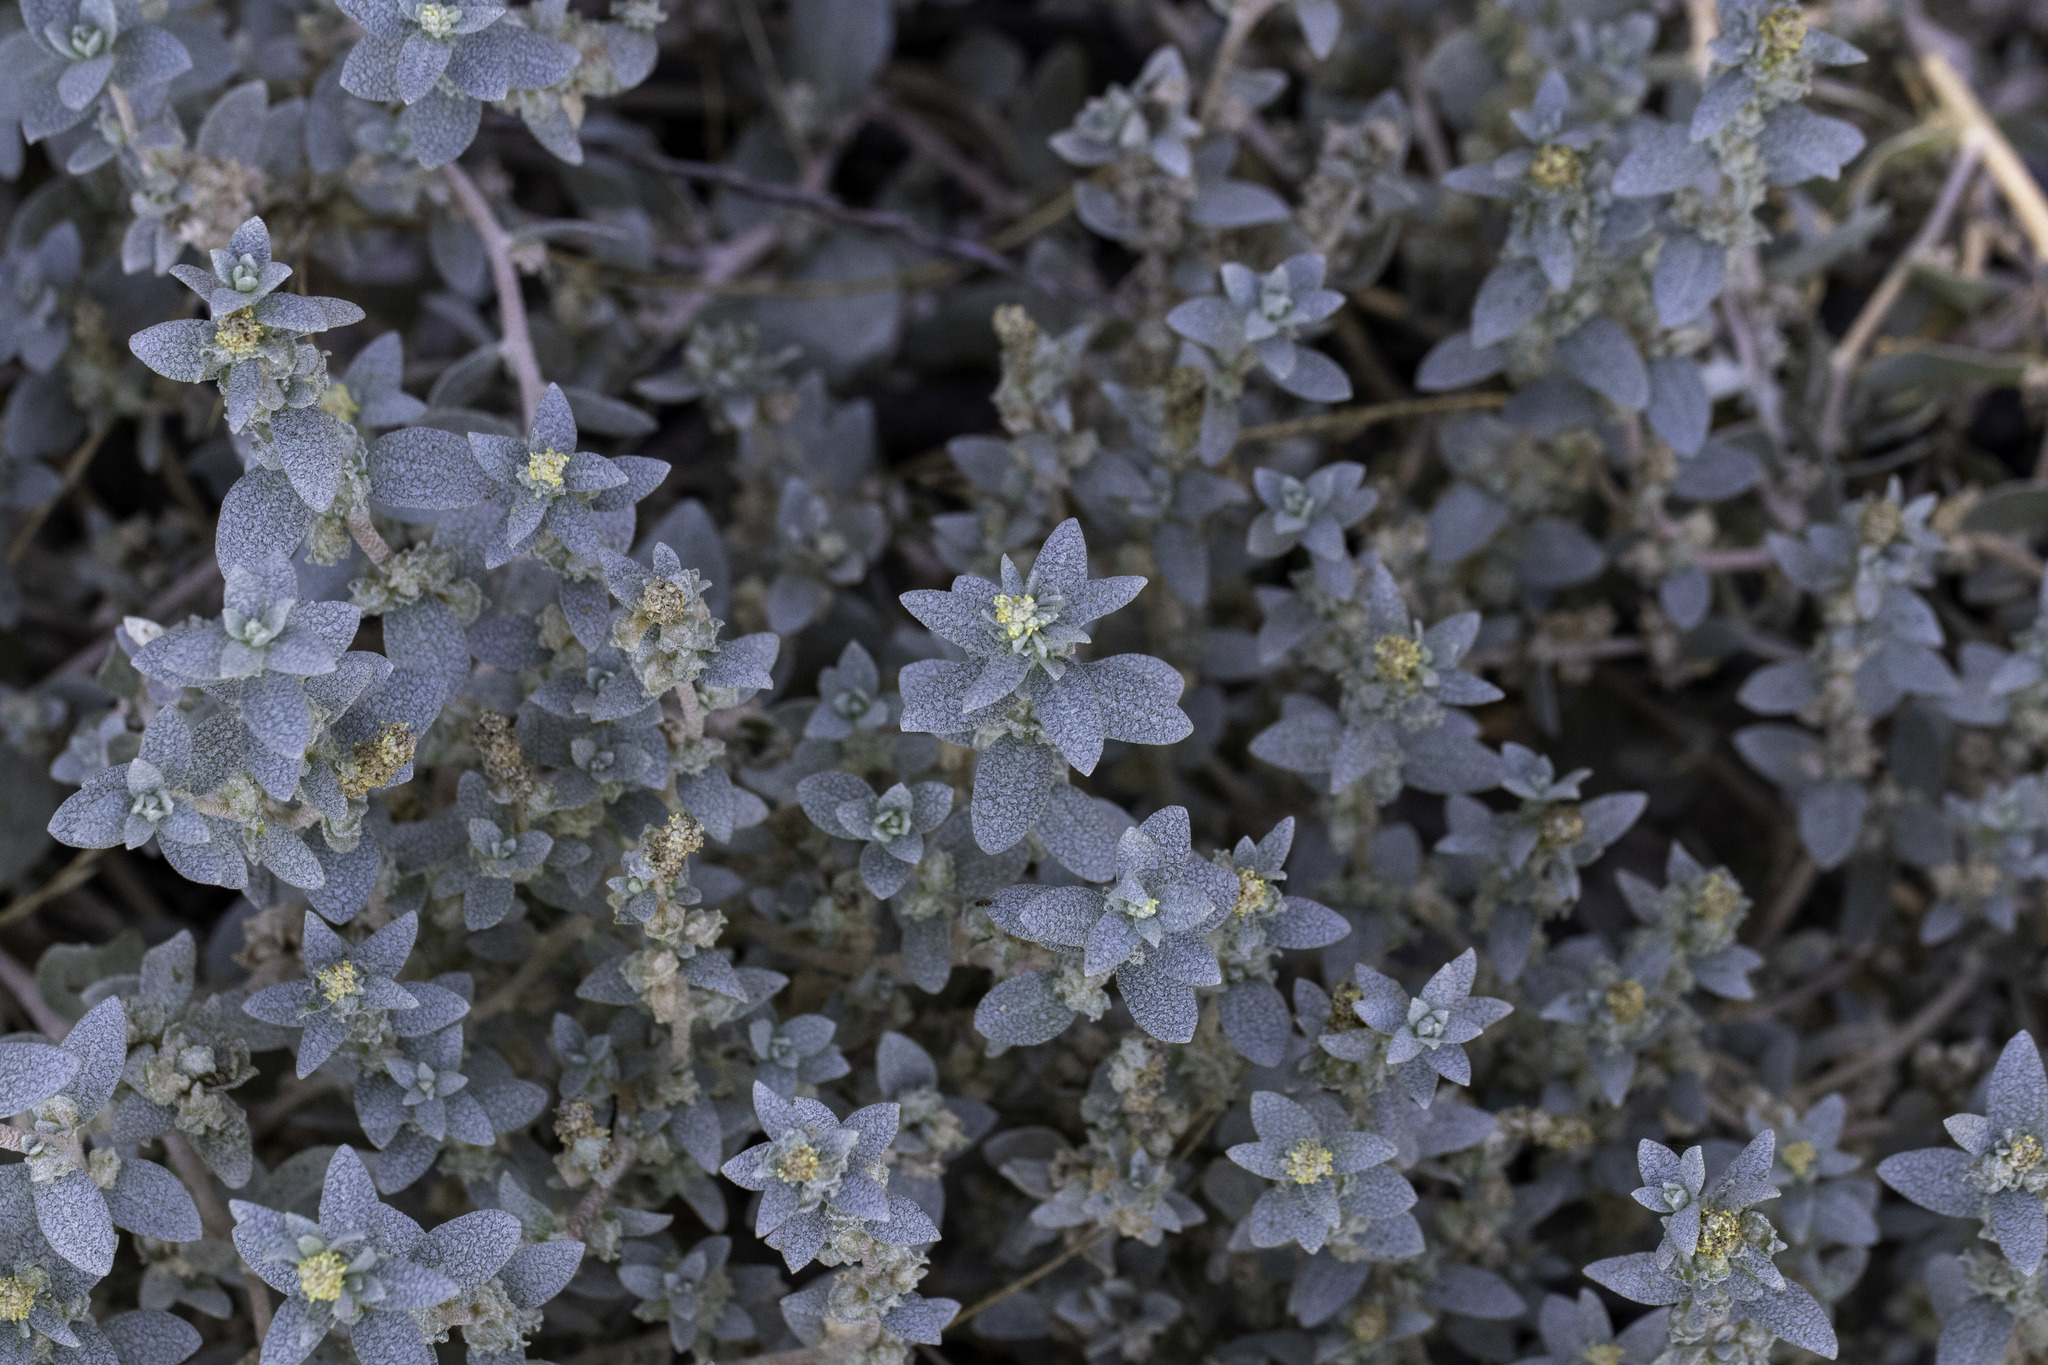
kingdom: Plantae
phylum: Tracheophyta
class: Magnoliopsida
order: Caryophyllales
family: Amaranthaceae
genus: Atriplex
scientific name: Atriplex leucophylla
